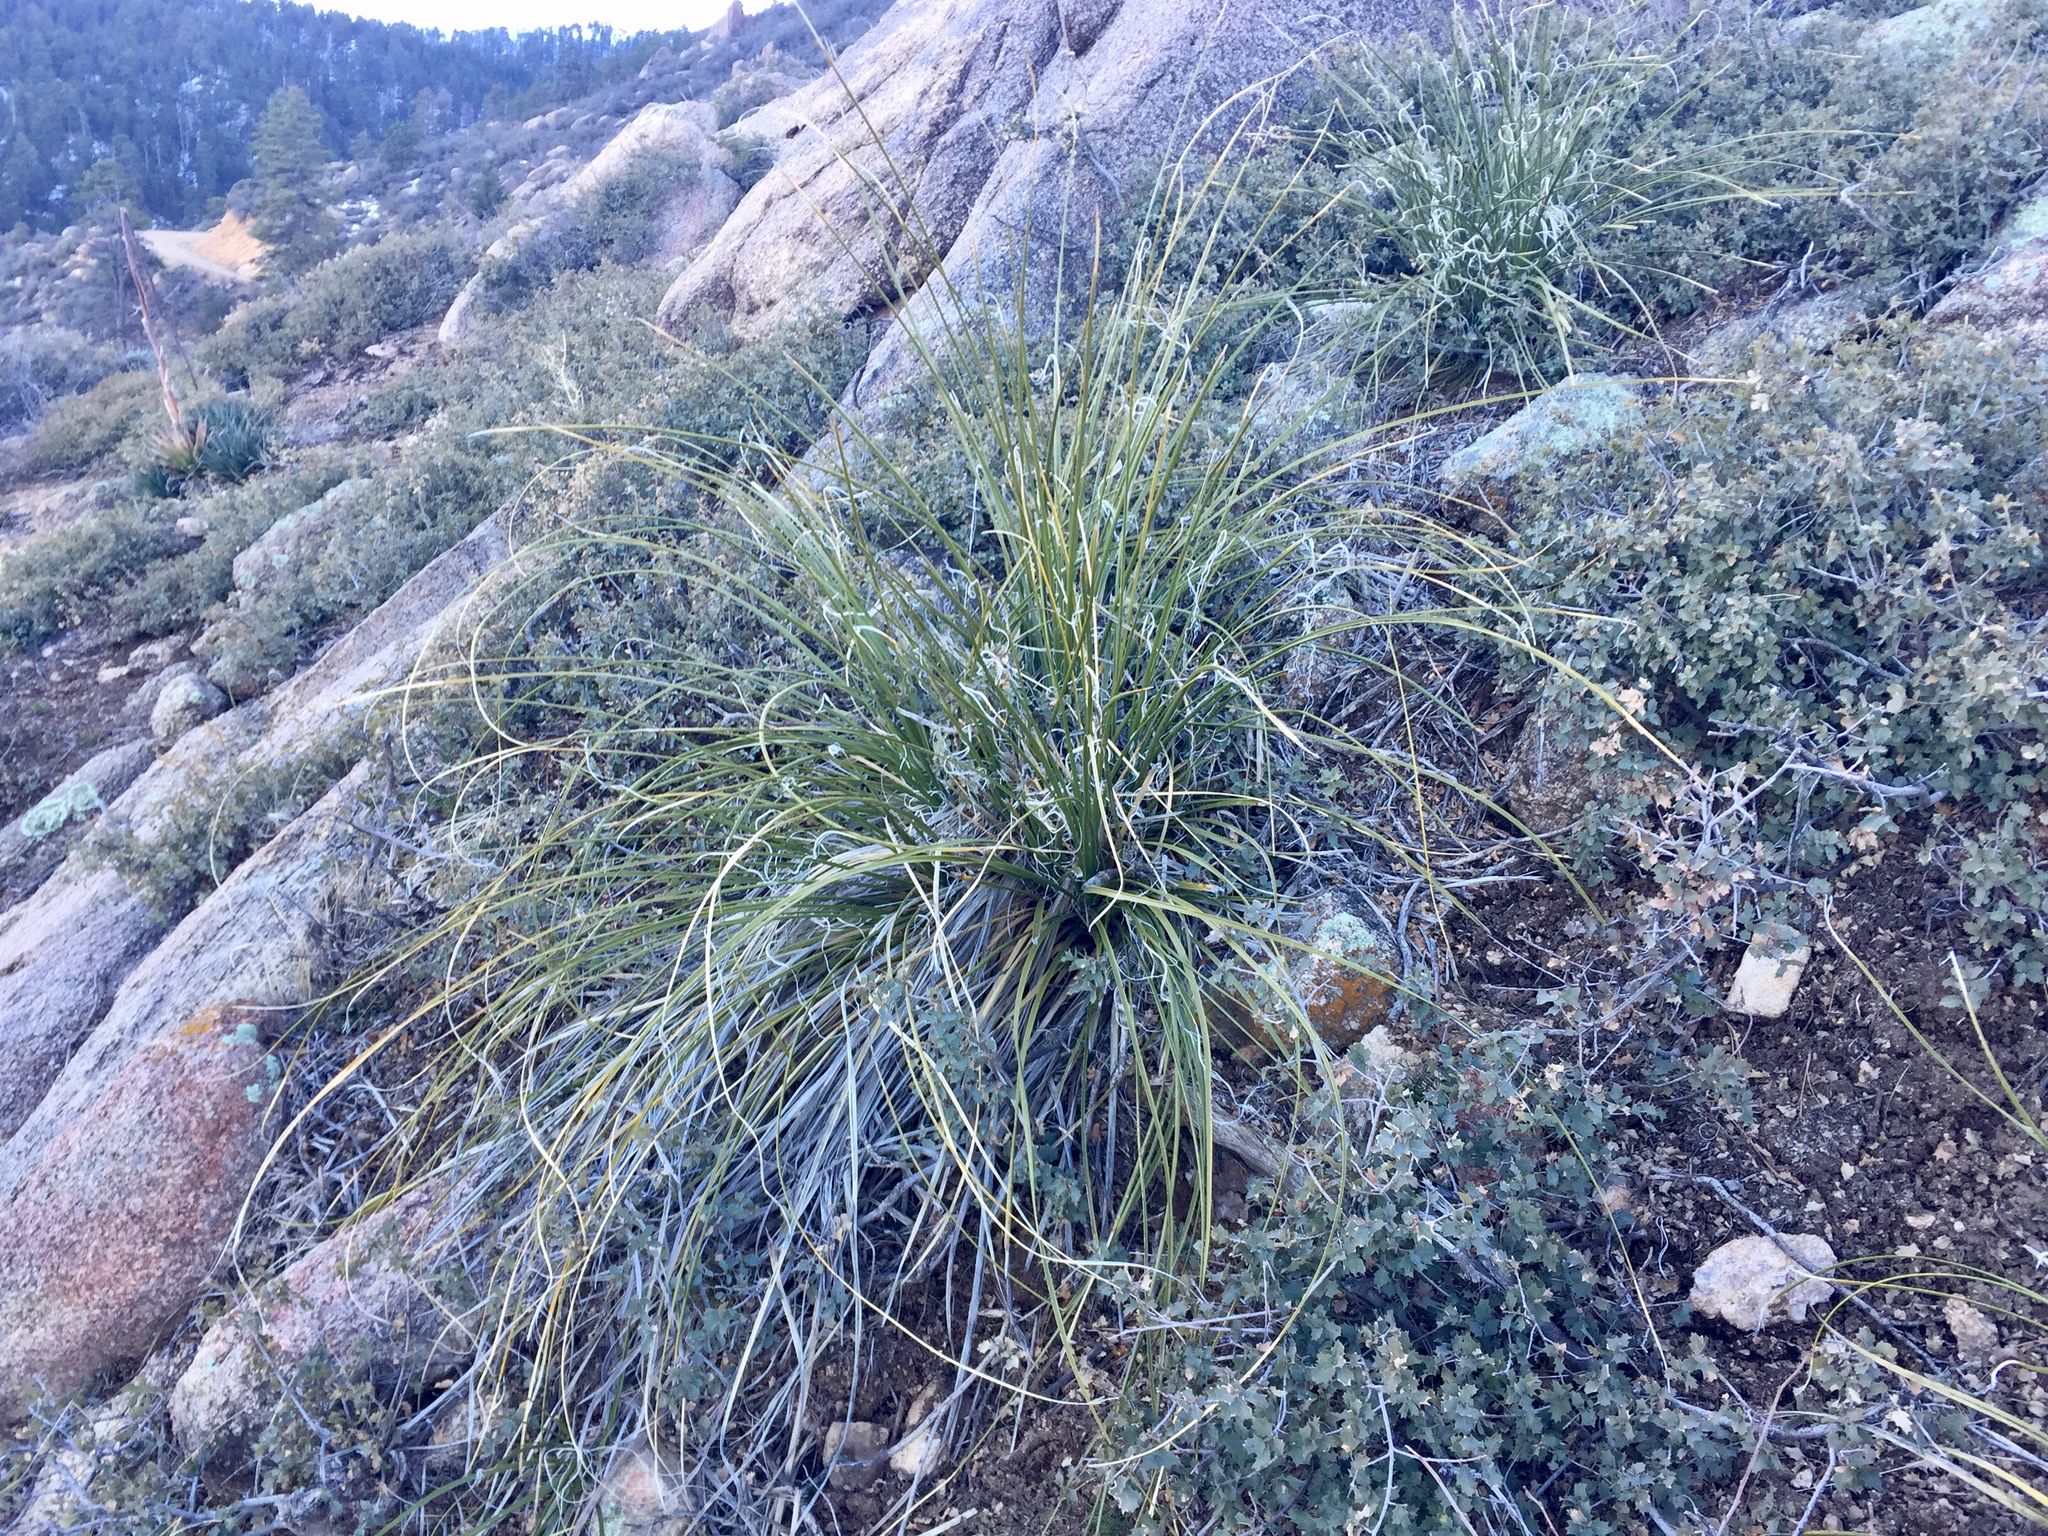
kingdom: Plantae
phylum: Tracheophyta
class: Liliopsida
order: Asparagales
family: Asparagaceae
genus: Nolina
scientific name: Nolina microcarpa
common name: Bear-grass
